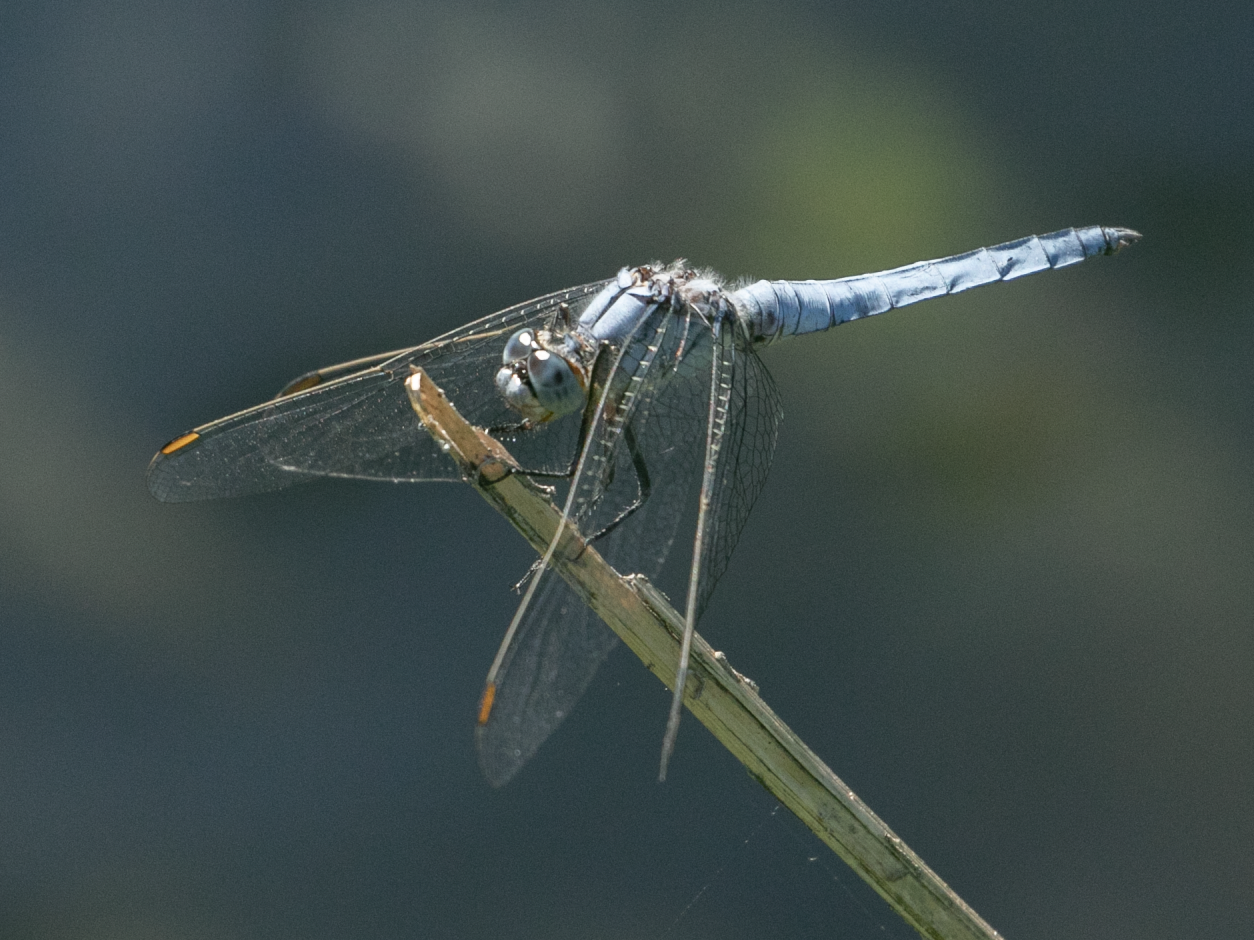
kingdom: Animalia
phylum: Arthropoda
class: Insecta
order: Odonata
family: Libellulidae
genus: Orthetrum
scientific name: Orthetrum brunneum
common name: Southern skimmer
